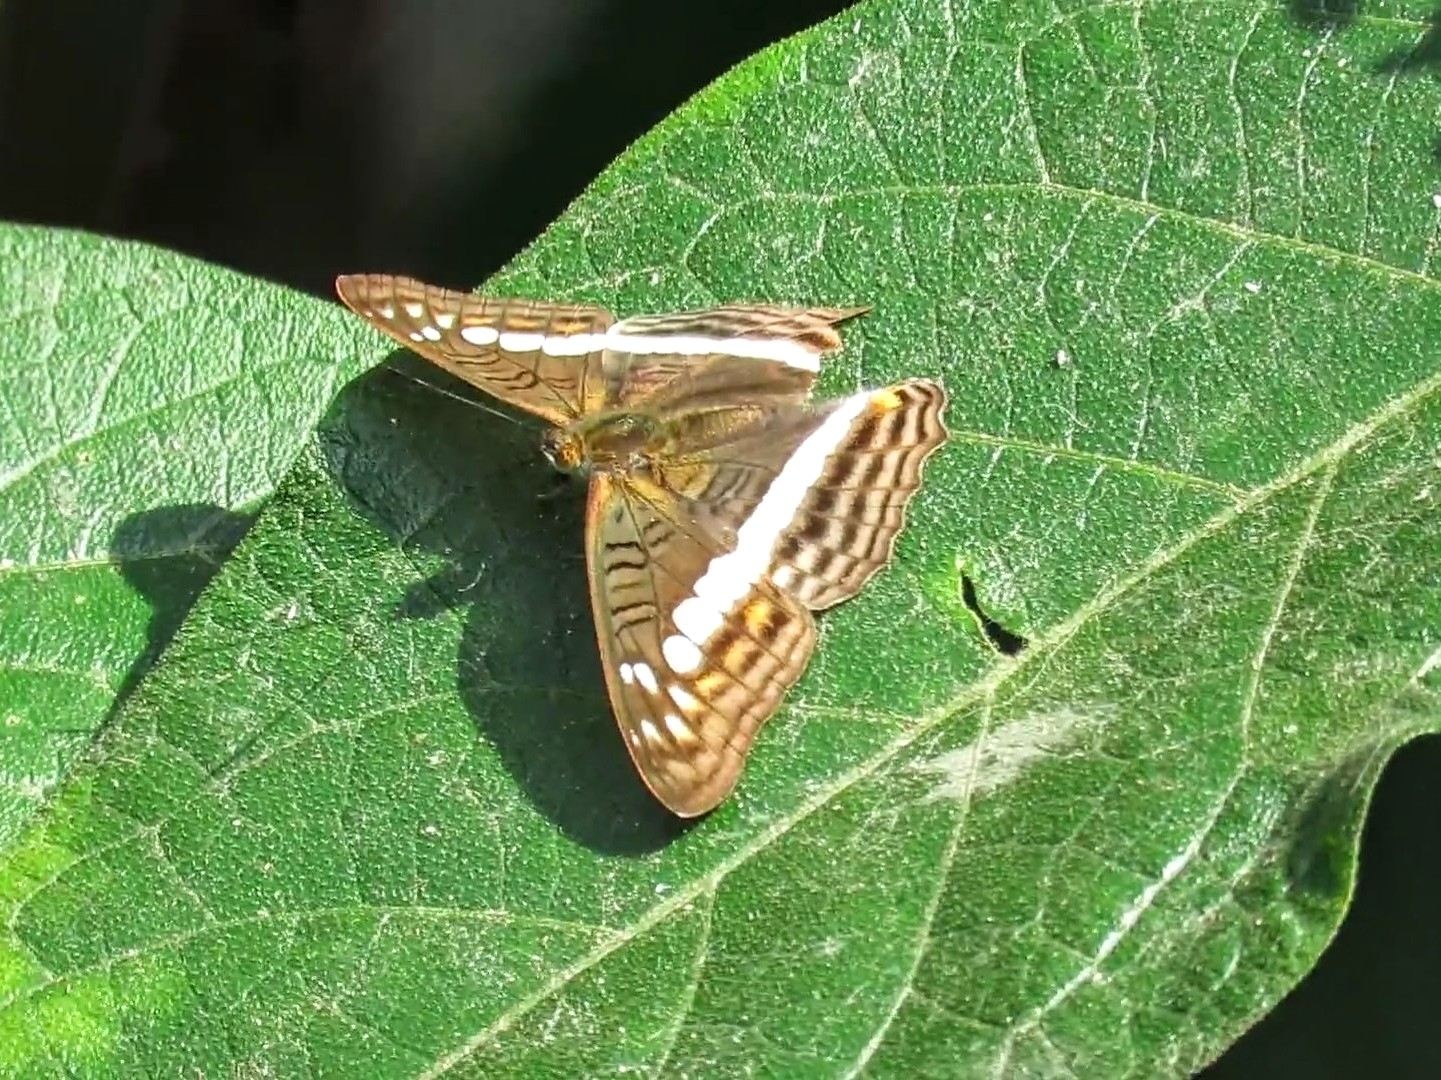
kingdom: Animalia
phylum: Arthropoda
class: Insecta
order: Lepidoptera
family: Nymphalidae
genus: Limenitis
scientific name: Limenitis alala
